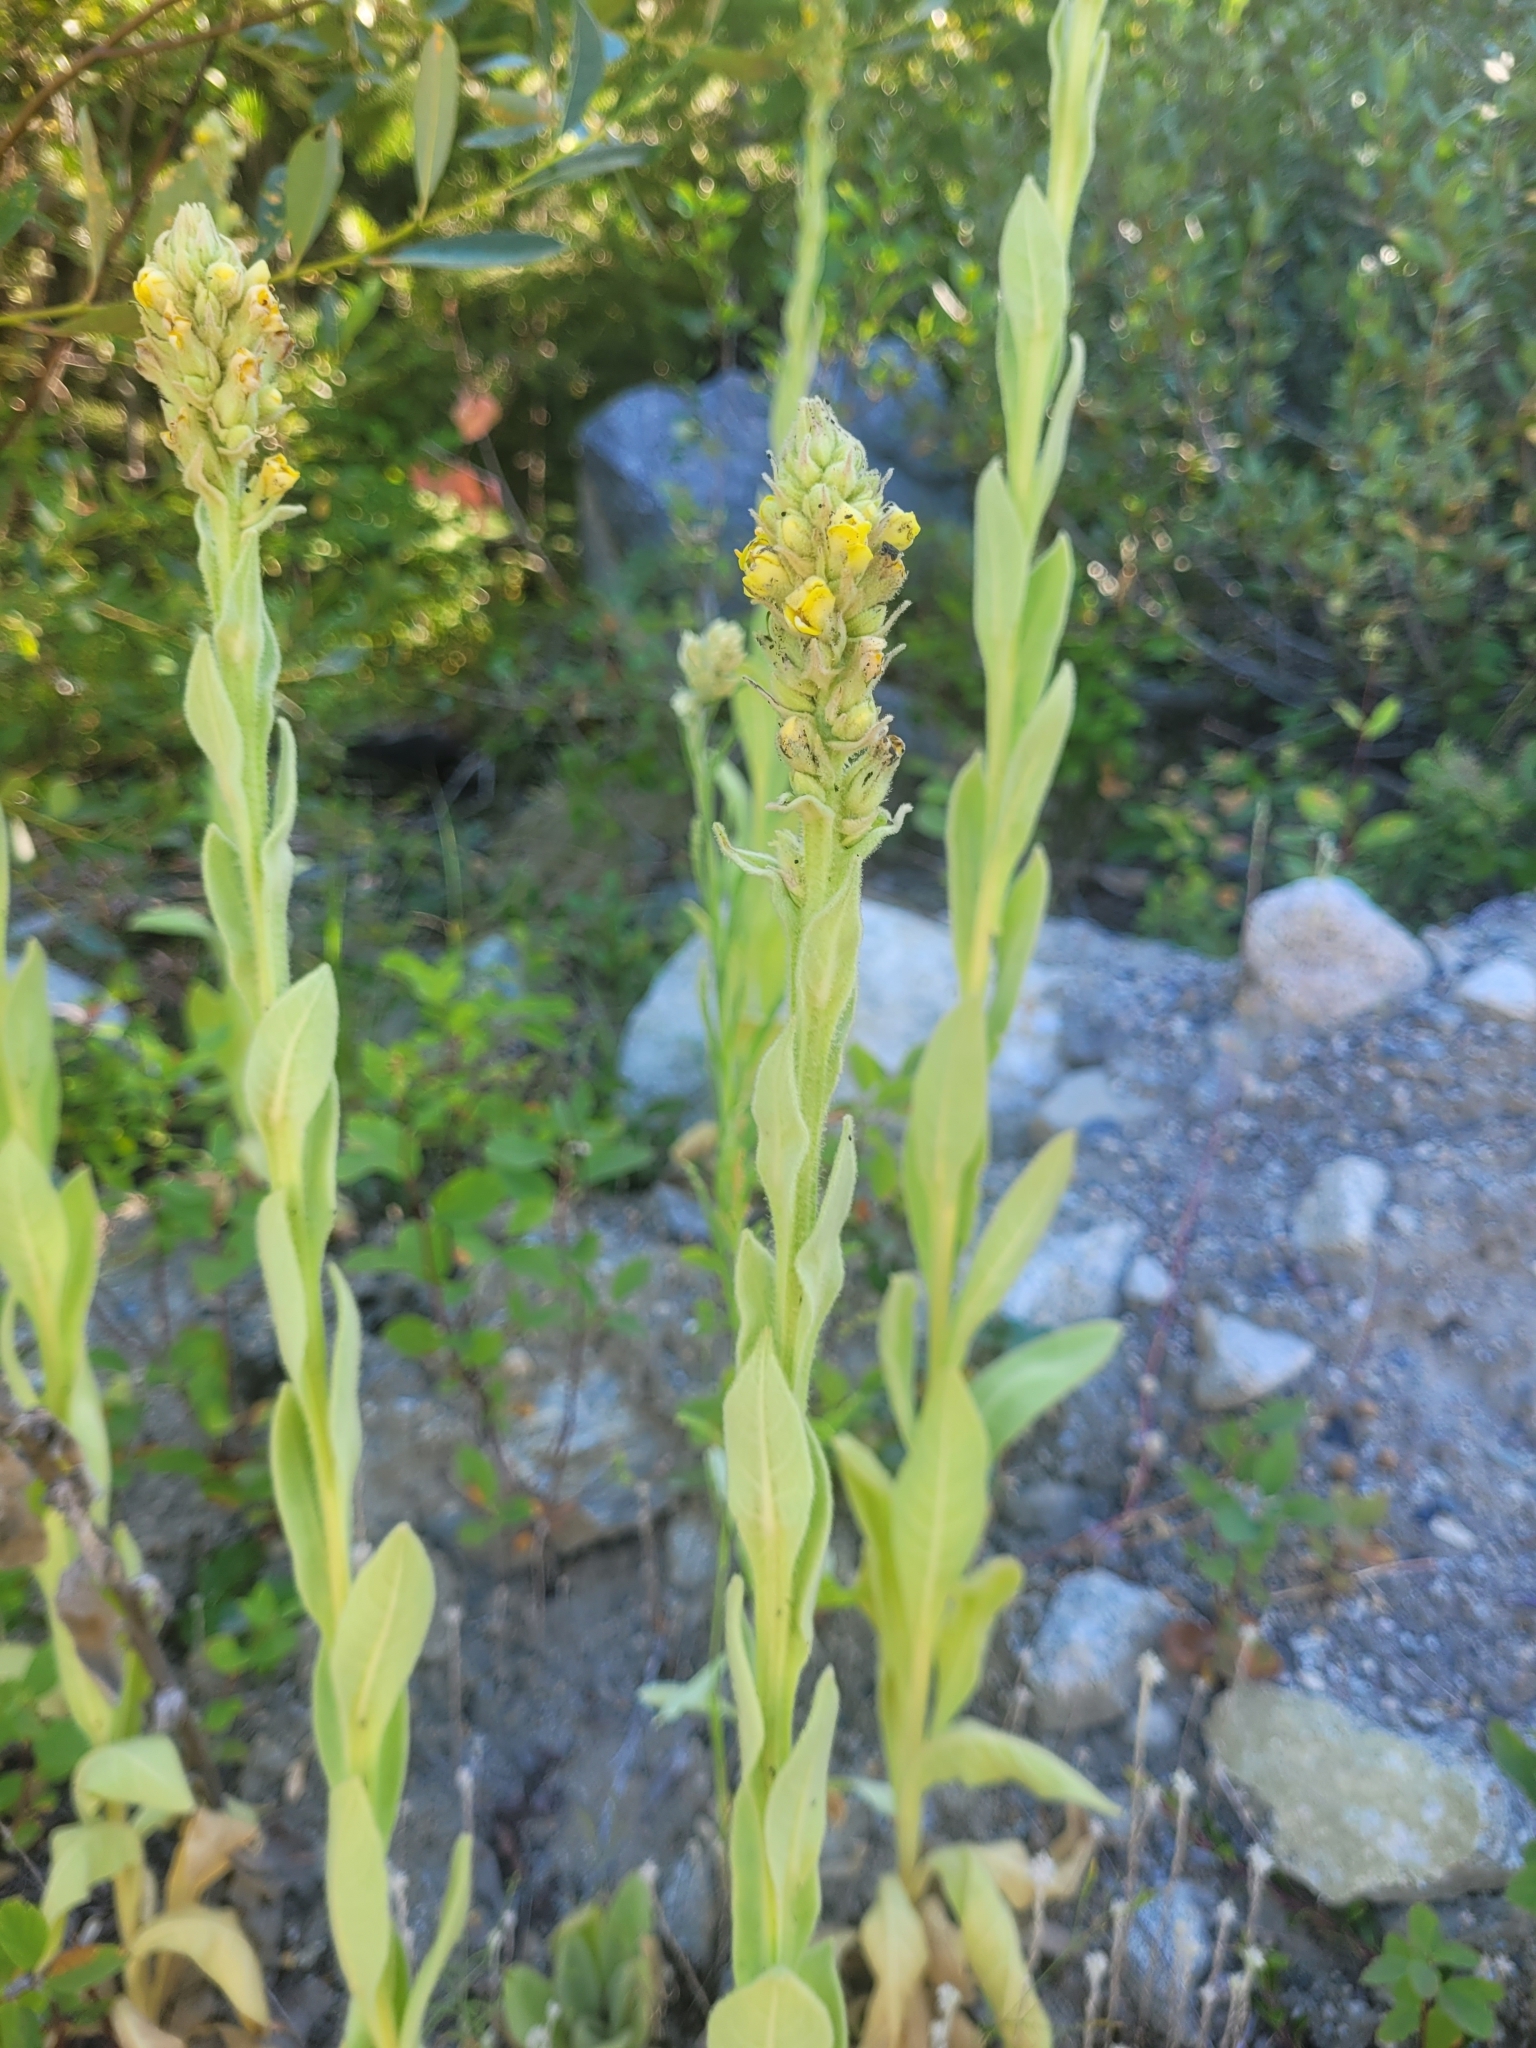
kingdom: Plantae
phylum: Tracheophyta
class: Magnoliopsida
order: Lamiales
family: Scrophulariaceae
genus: Verbascum
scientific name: Verbascum thapsus
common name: Common mullein
